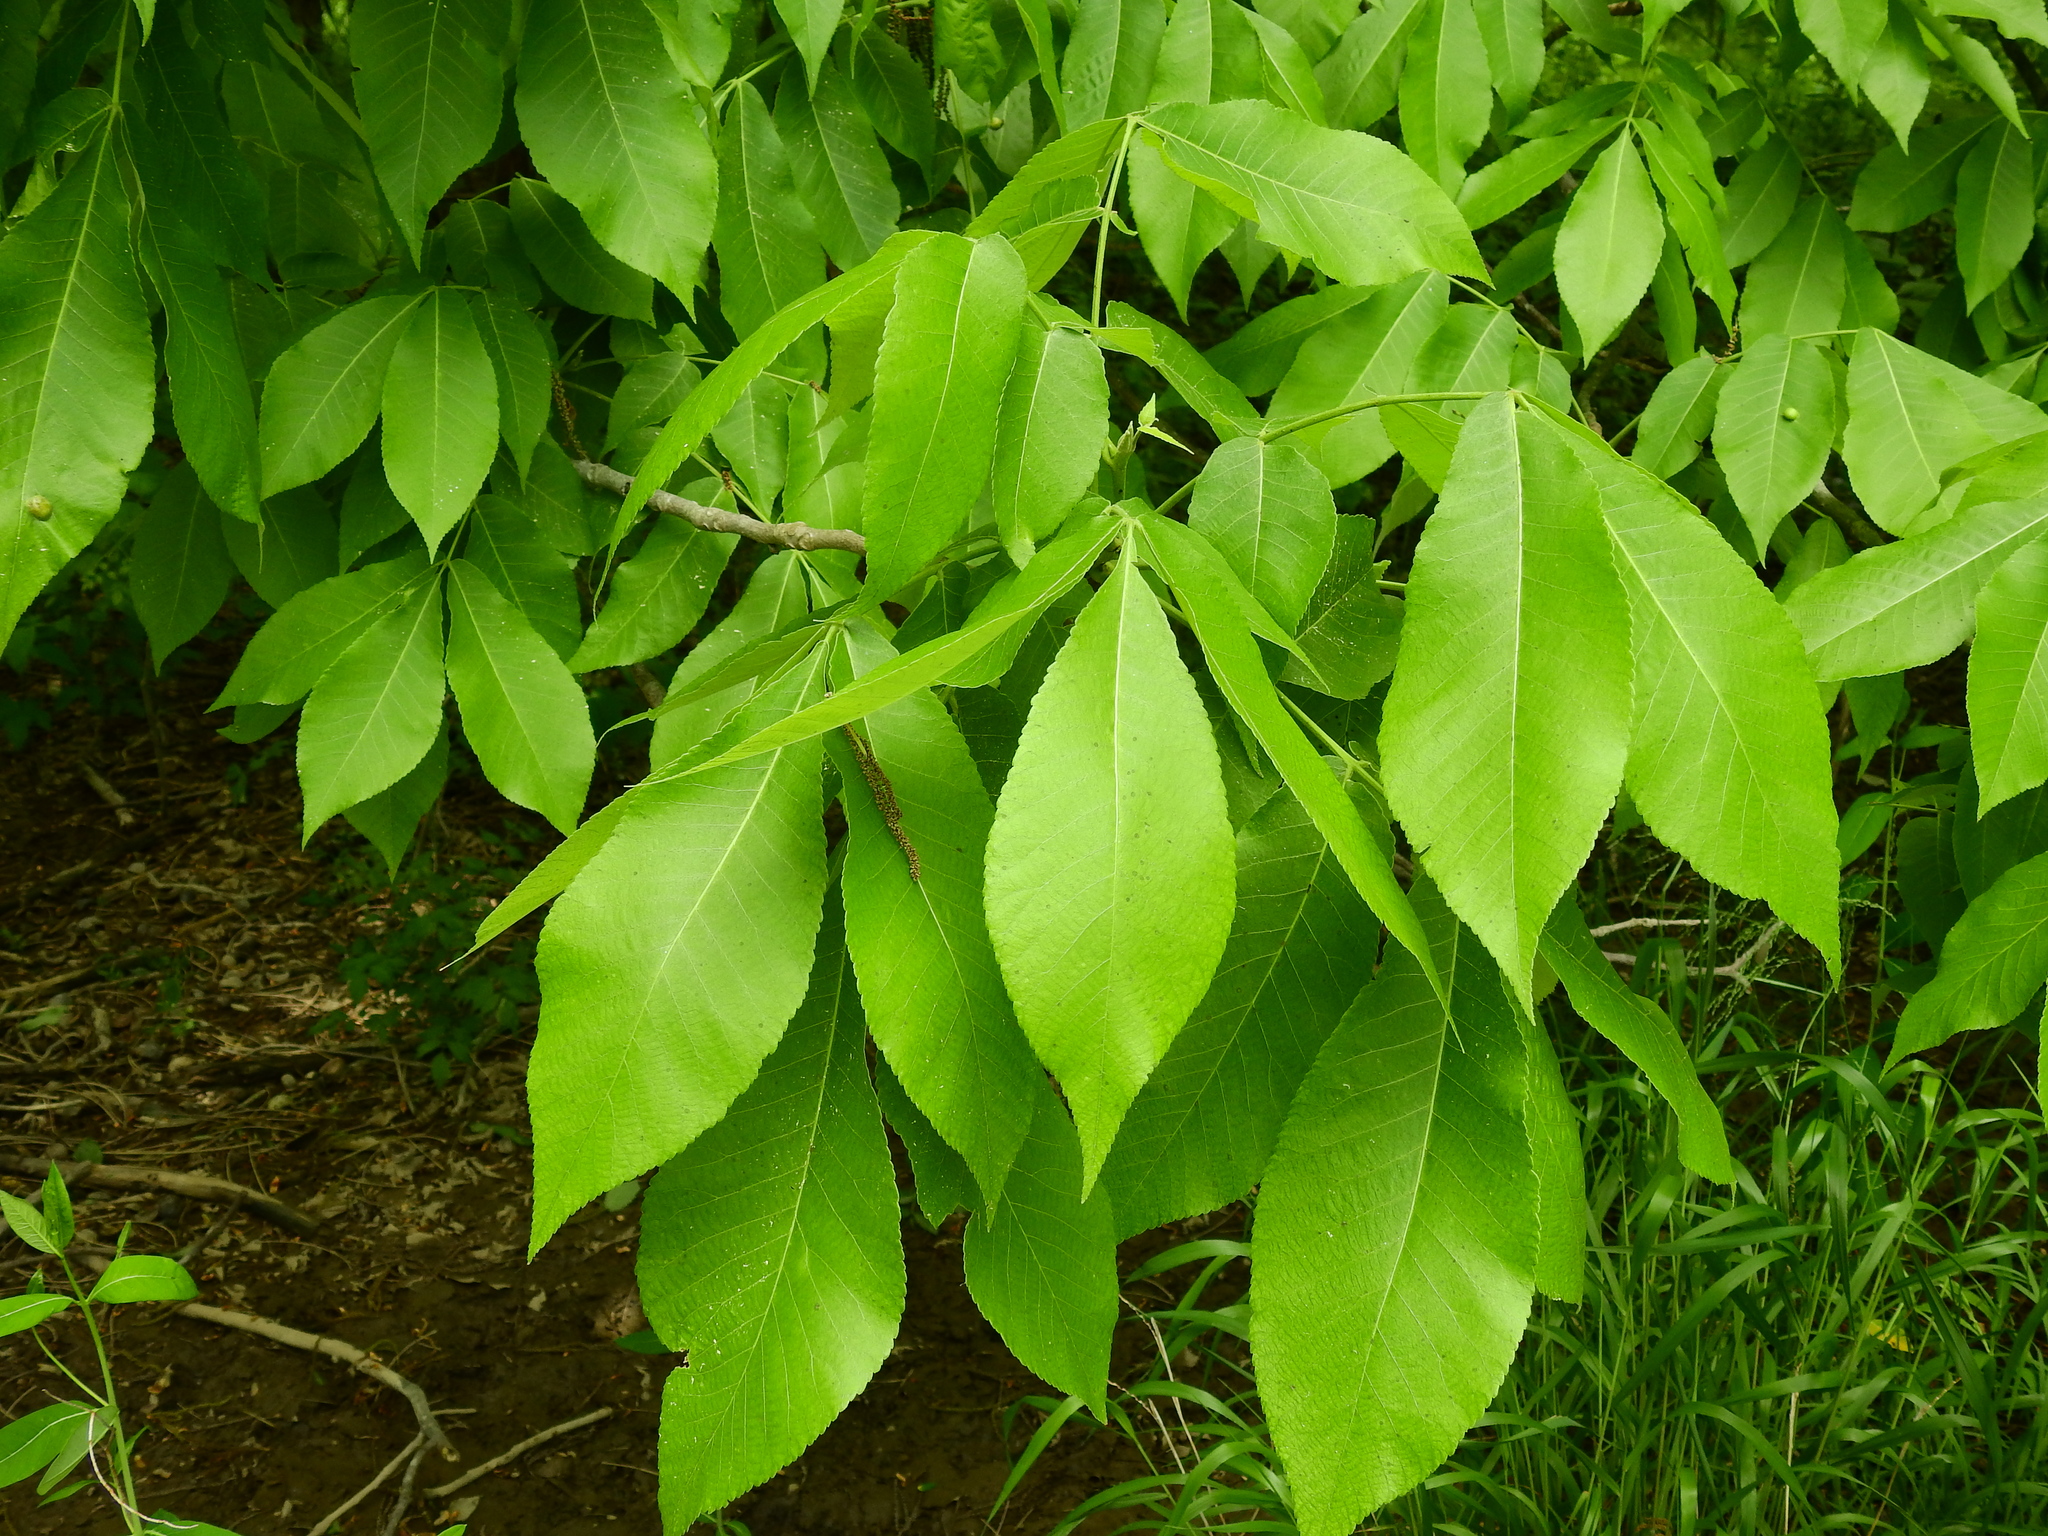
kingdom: Plantae
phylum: Tracheophyta
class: Magnoliopsida
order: Fagales
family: Juglandaceae
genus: Carya
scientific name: Carya laciniosa
